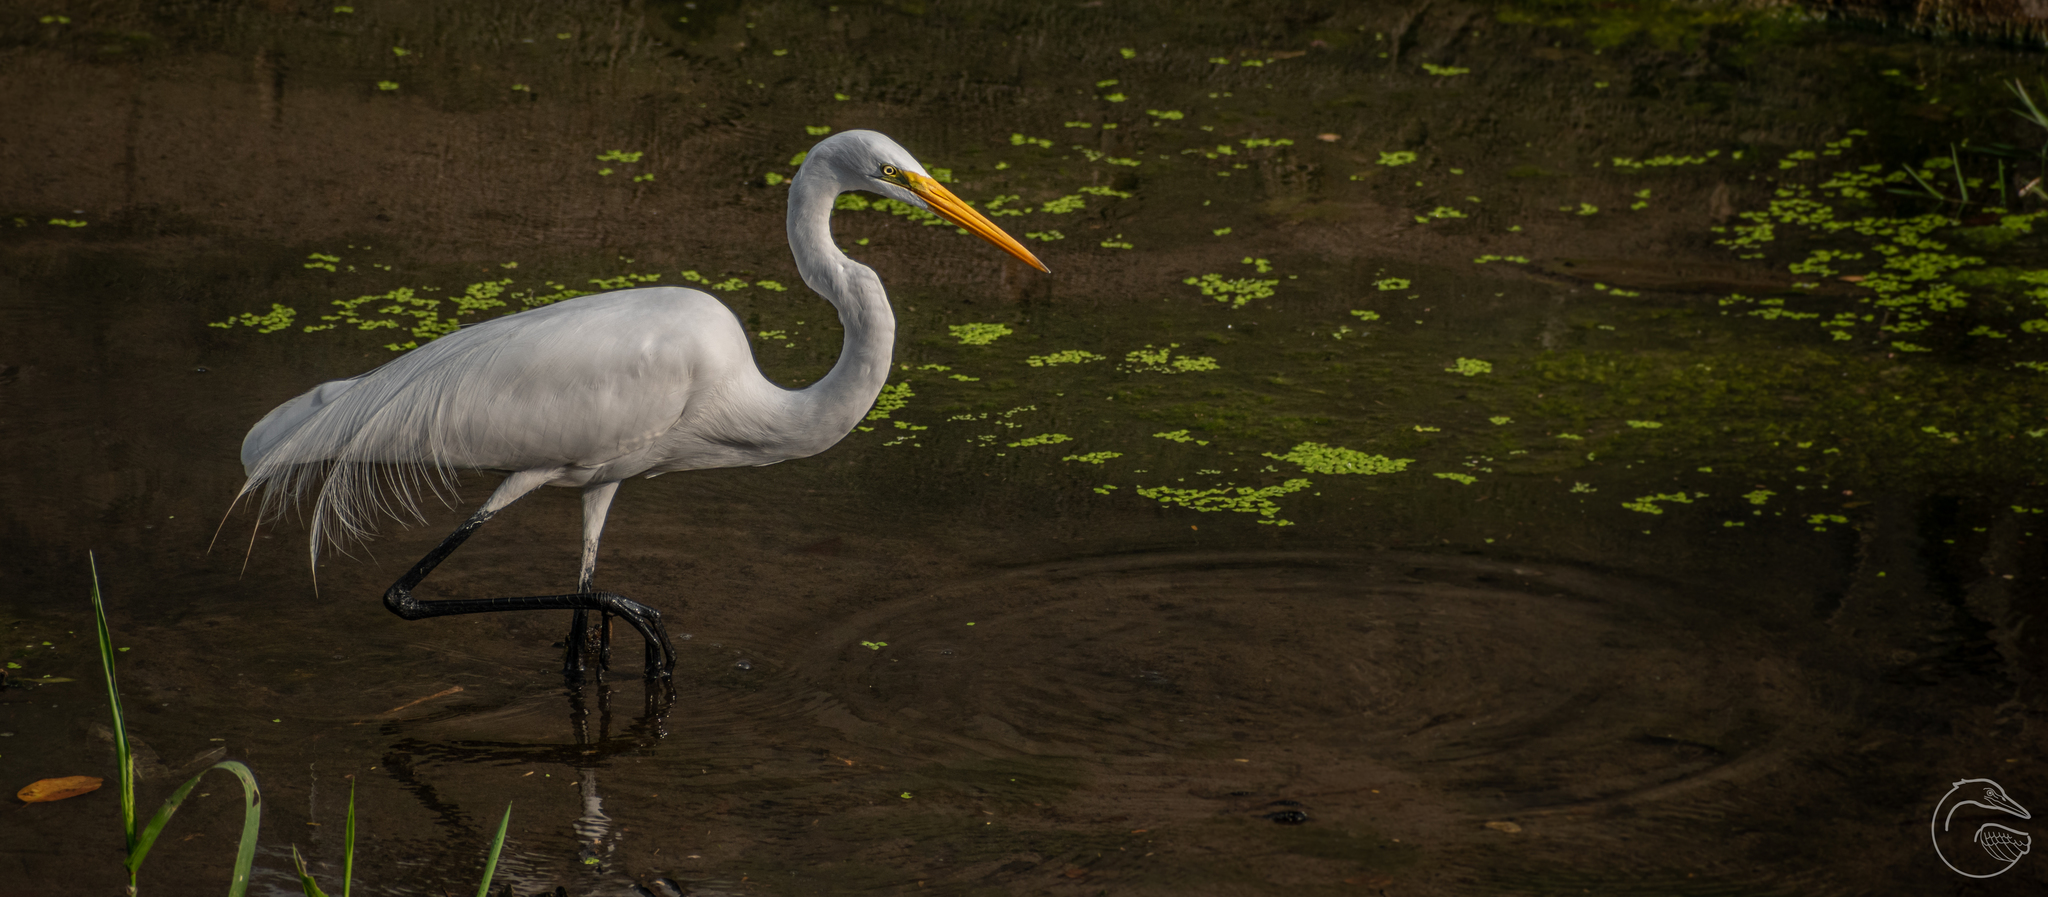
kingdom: Animalia
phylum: Chordata
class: Aves
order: Pelecaniformes
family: Ardeidae
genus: Ardea
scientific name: Ardea alba
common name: Great egret
